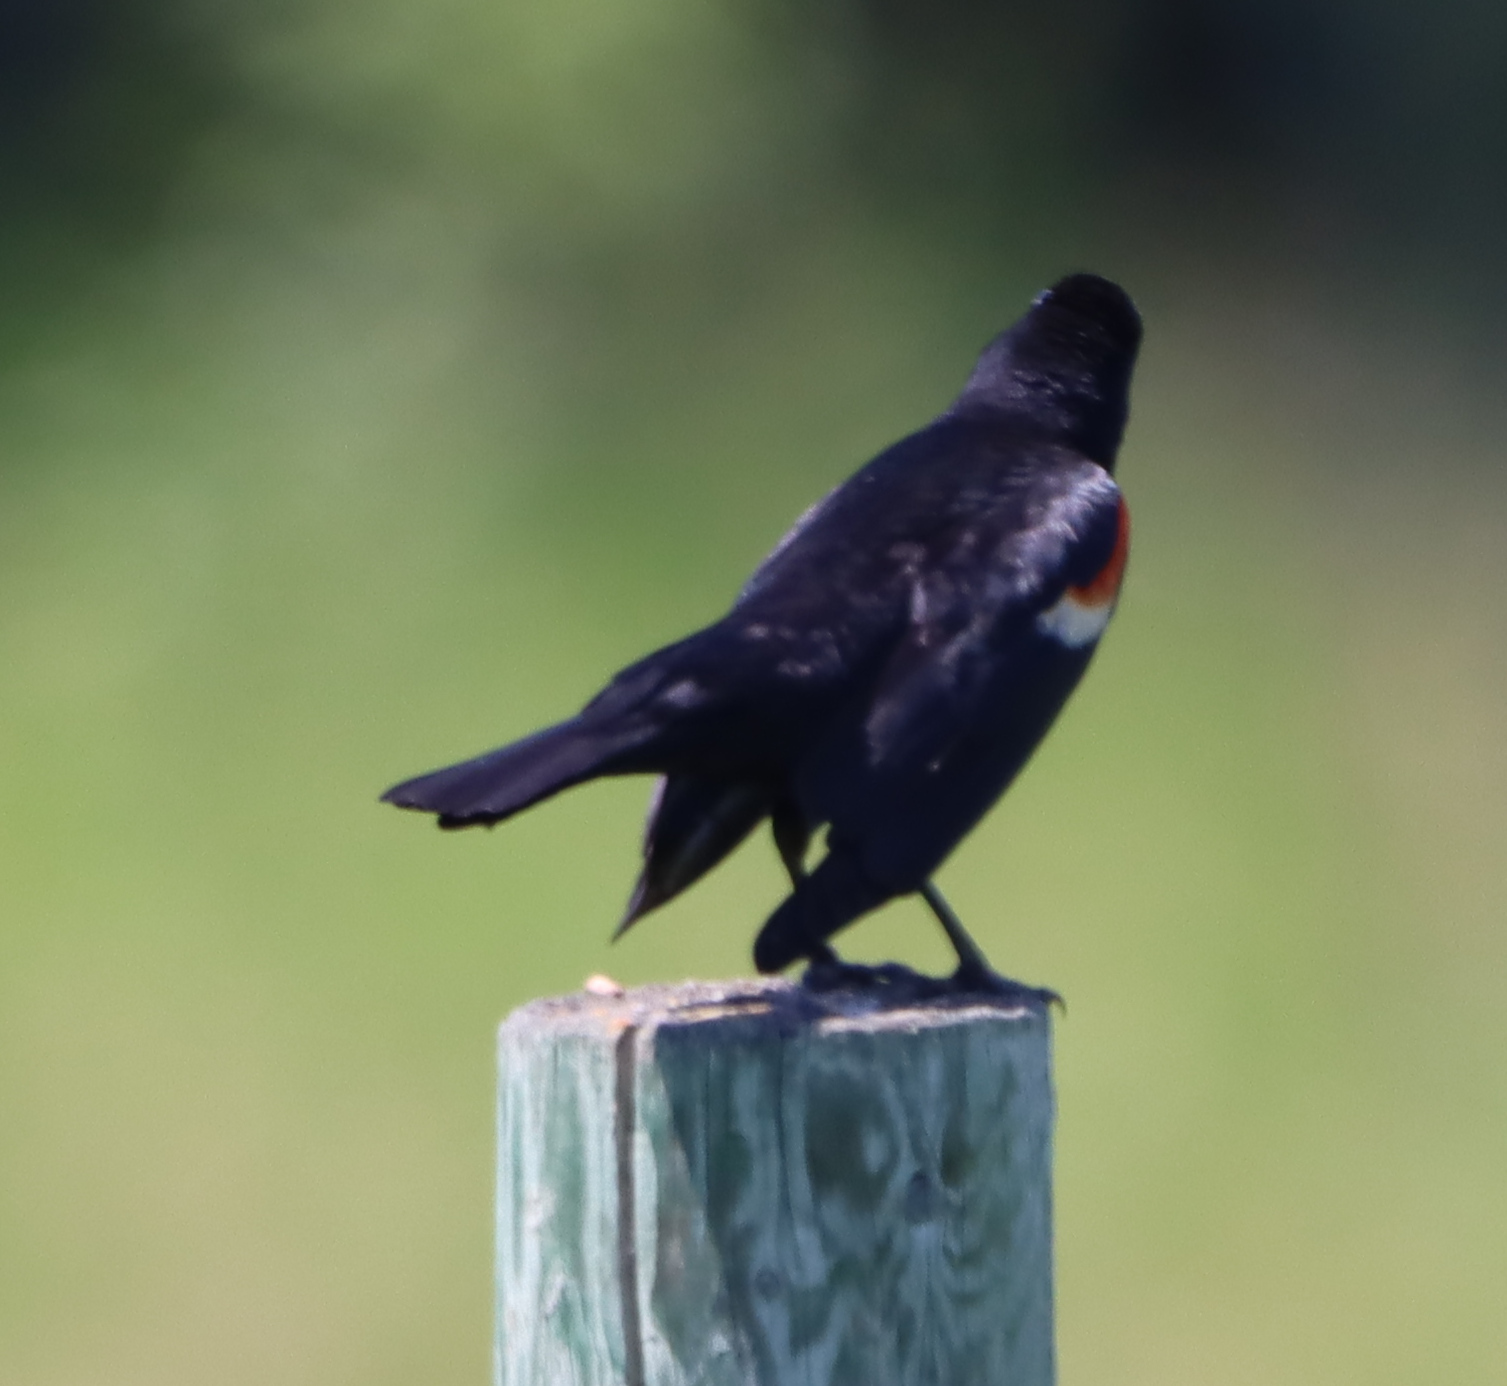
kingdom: Animalia
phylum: Chordata
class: Aves
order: Passeriformes
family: Icteridae
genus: Agelaius
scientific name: Agelaius phoeniceus
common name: Red-winged blackbird
